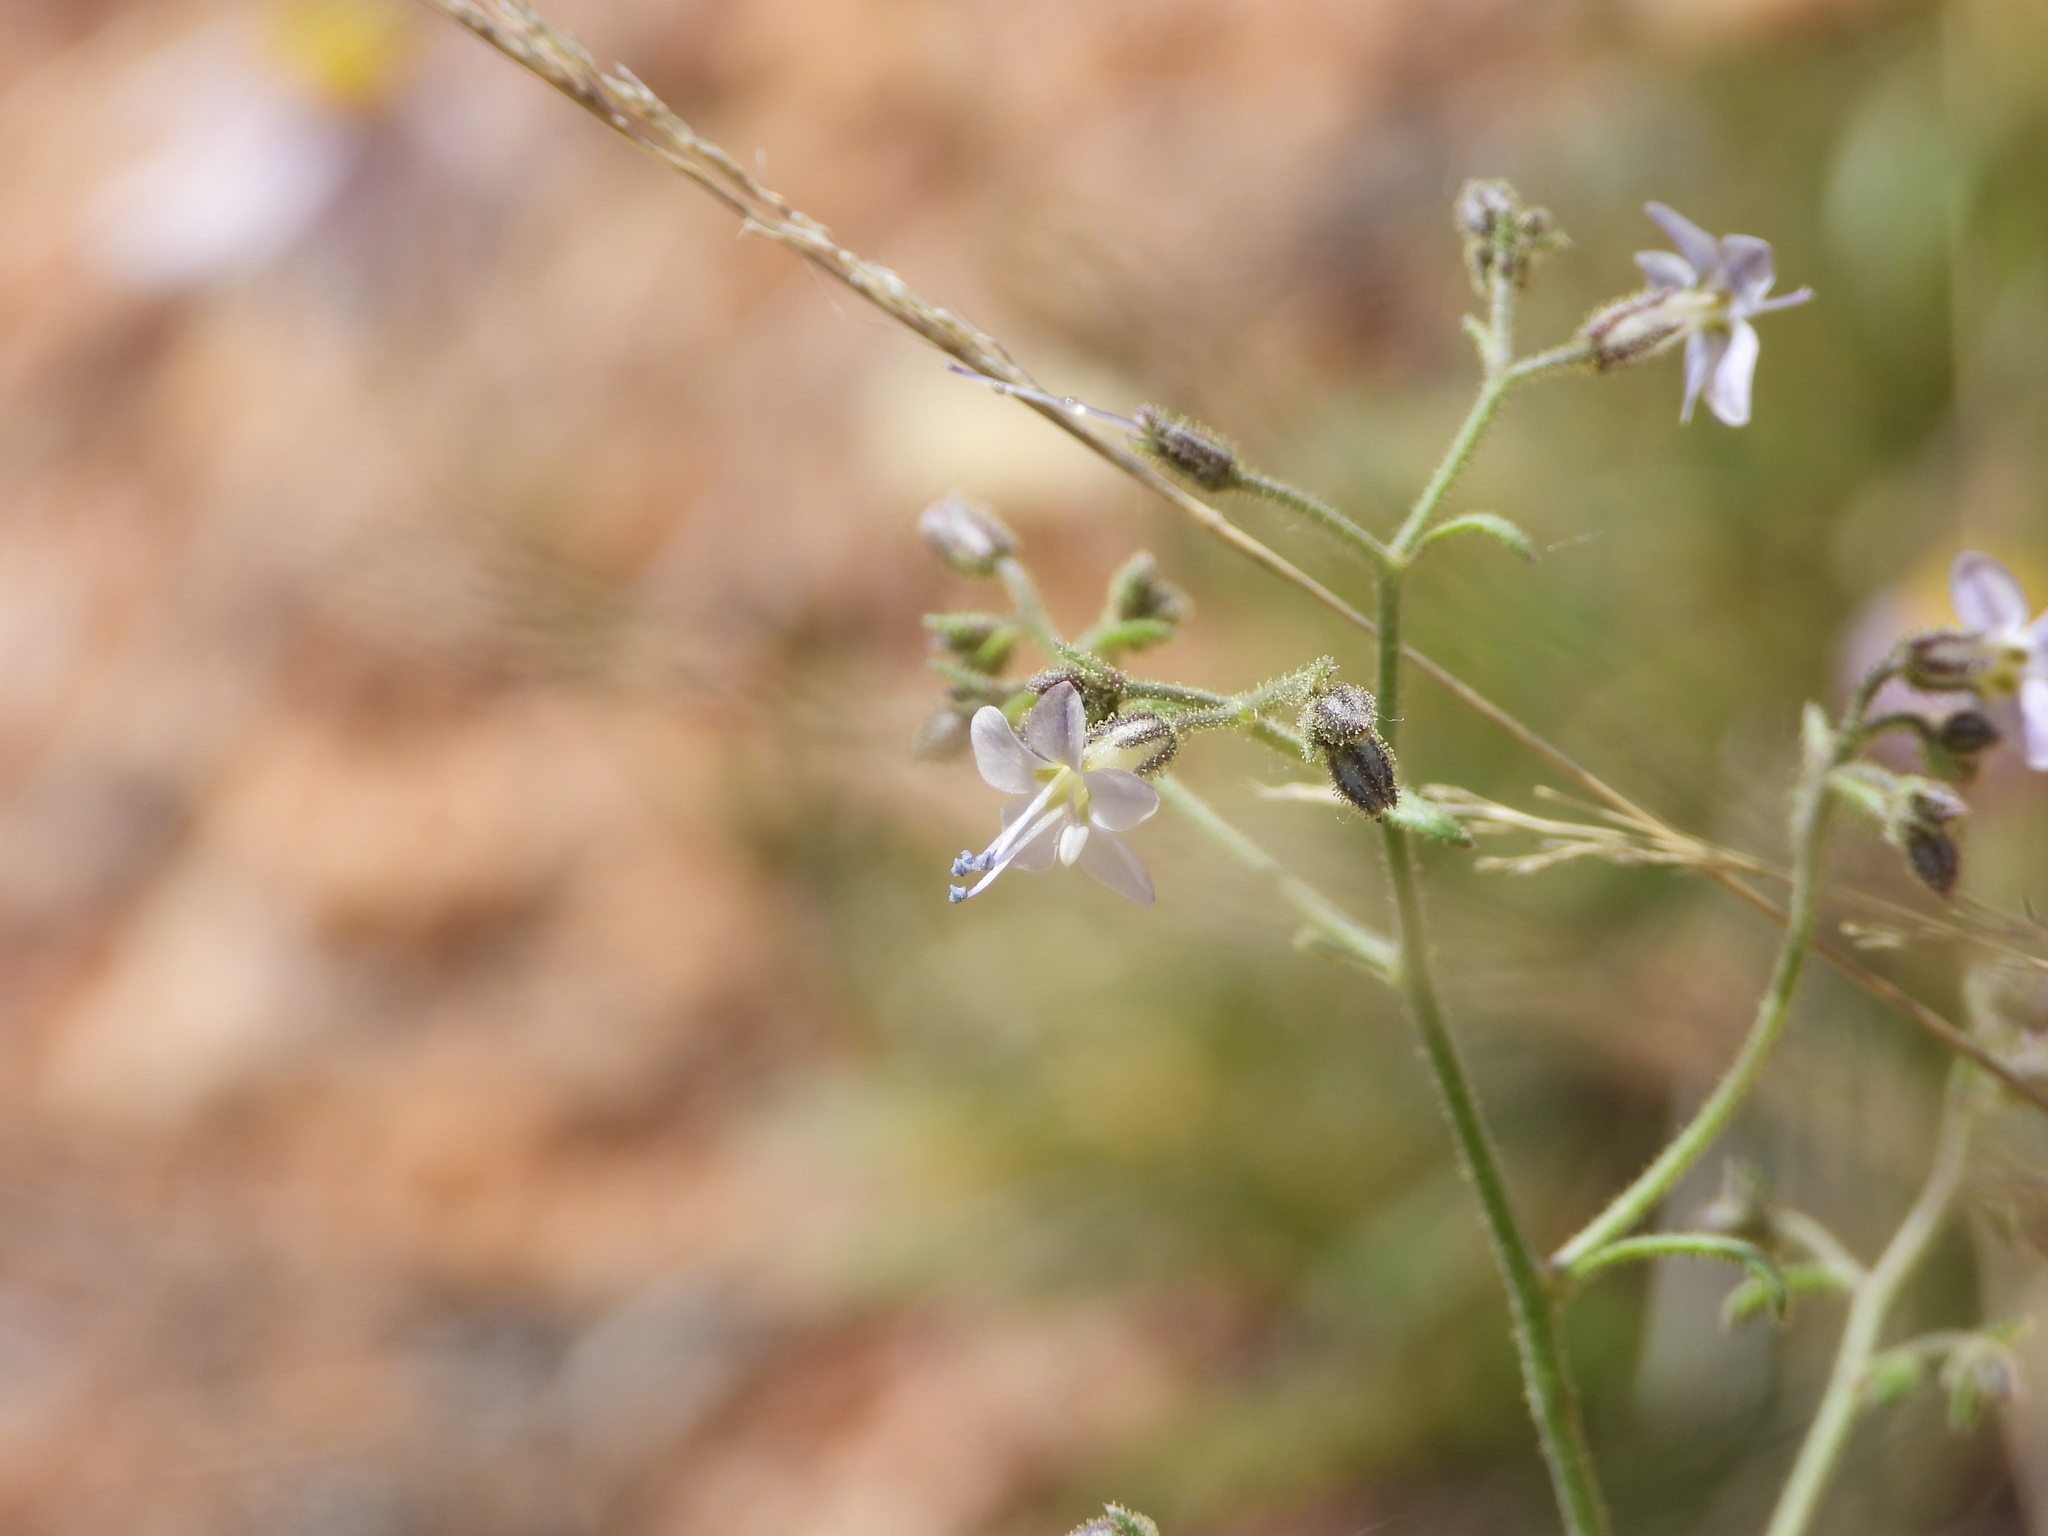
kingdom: Plantae
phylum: Tracheophyta
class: Magnoliopsida
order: Ericales
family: Polemoniaceae
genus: Aliciella
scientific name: Aliciella pinnatifida
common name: Sticky gilia
